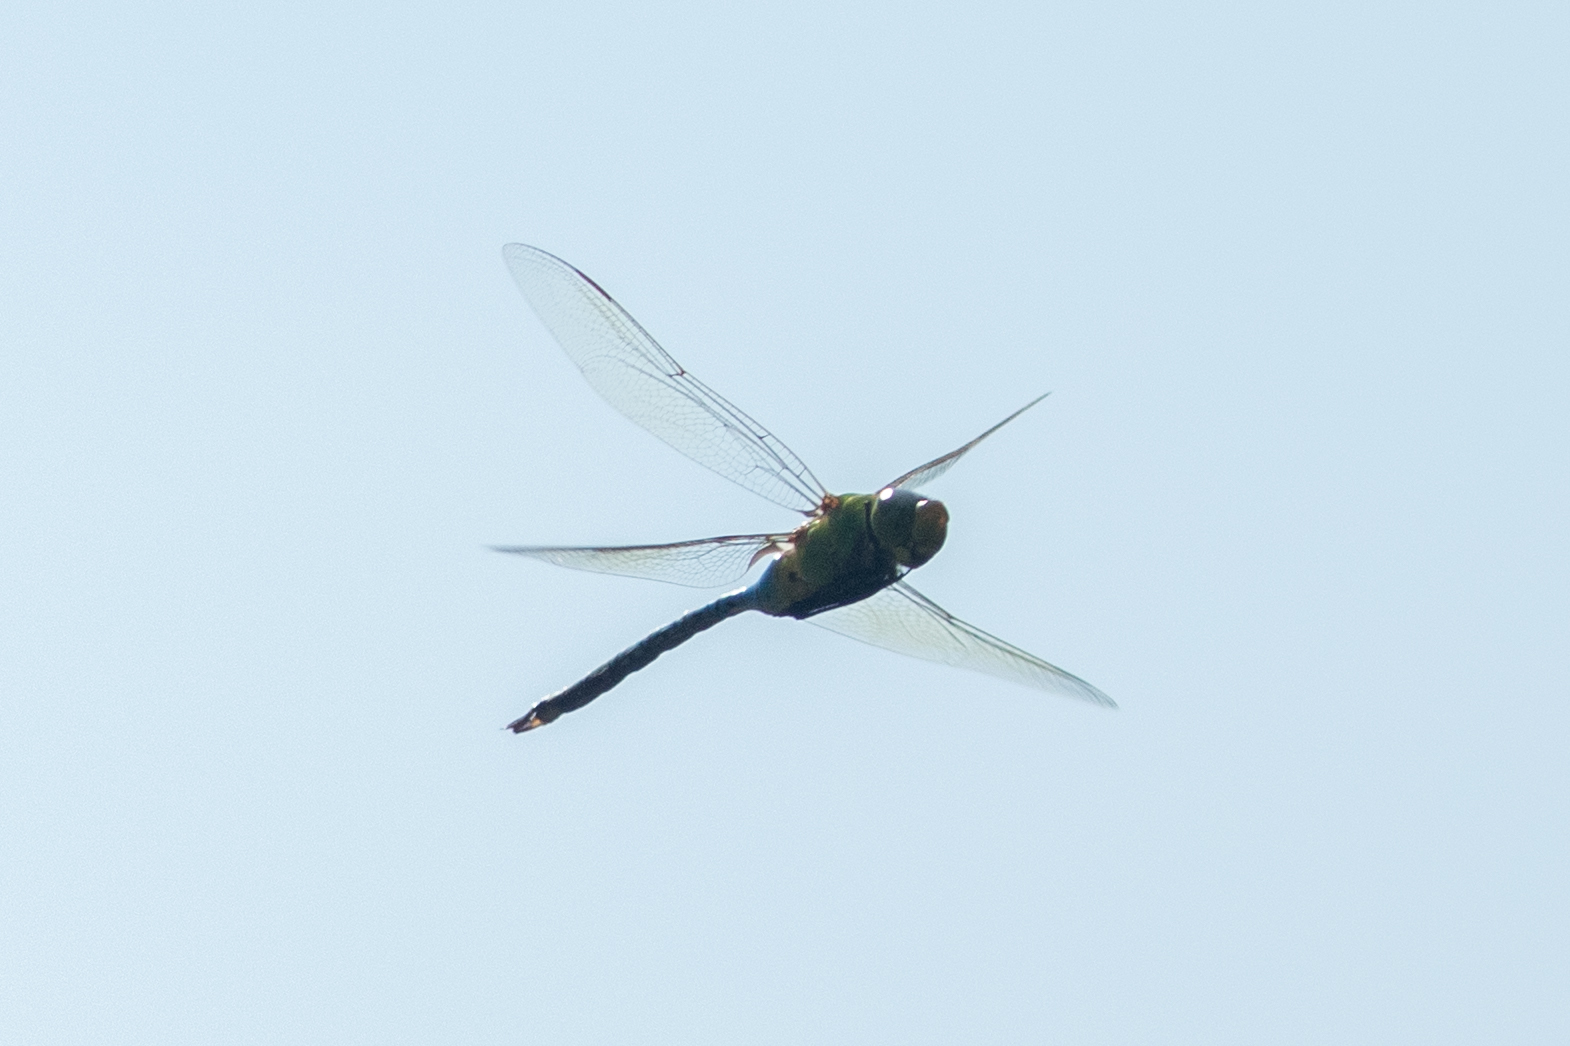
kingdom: Animalia
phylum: Arthropoda
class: Insecta
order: Odonata
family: Aeshnidae
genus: Anax
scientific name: Anax junius
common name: Common green darner
